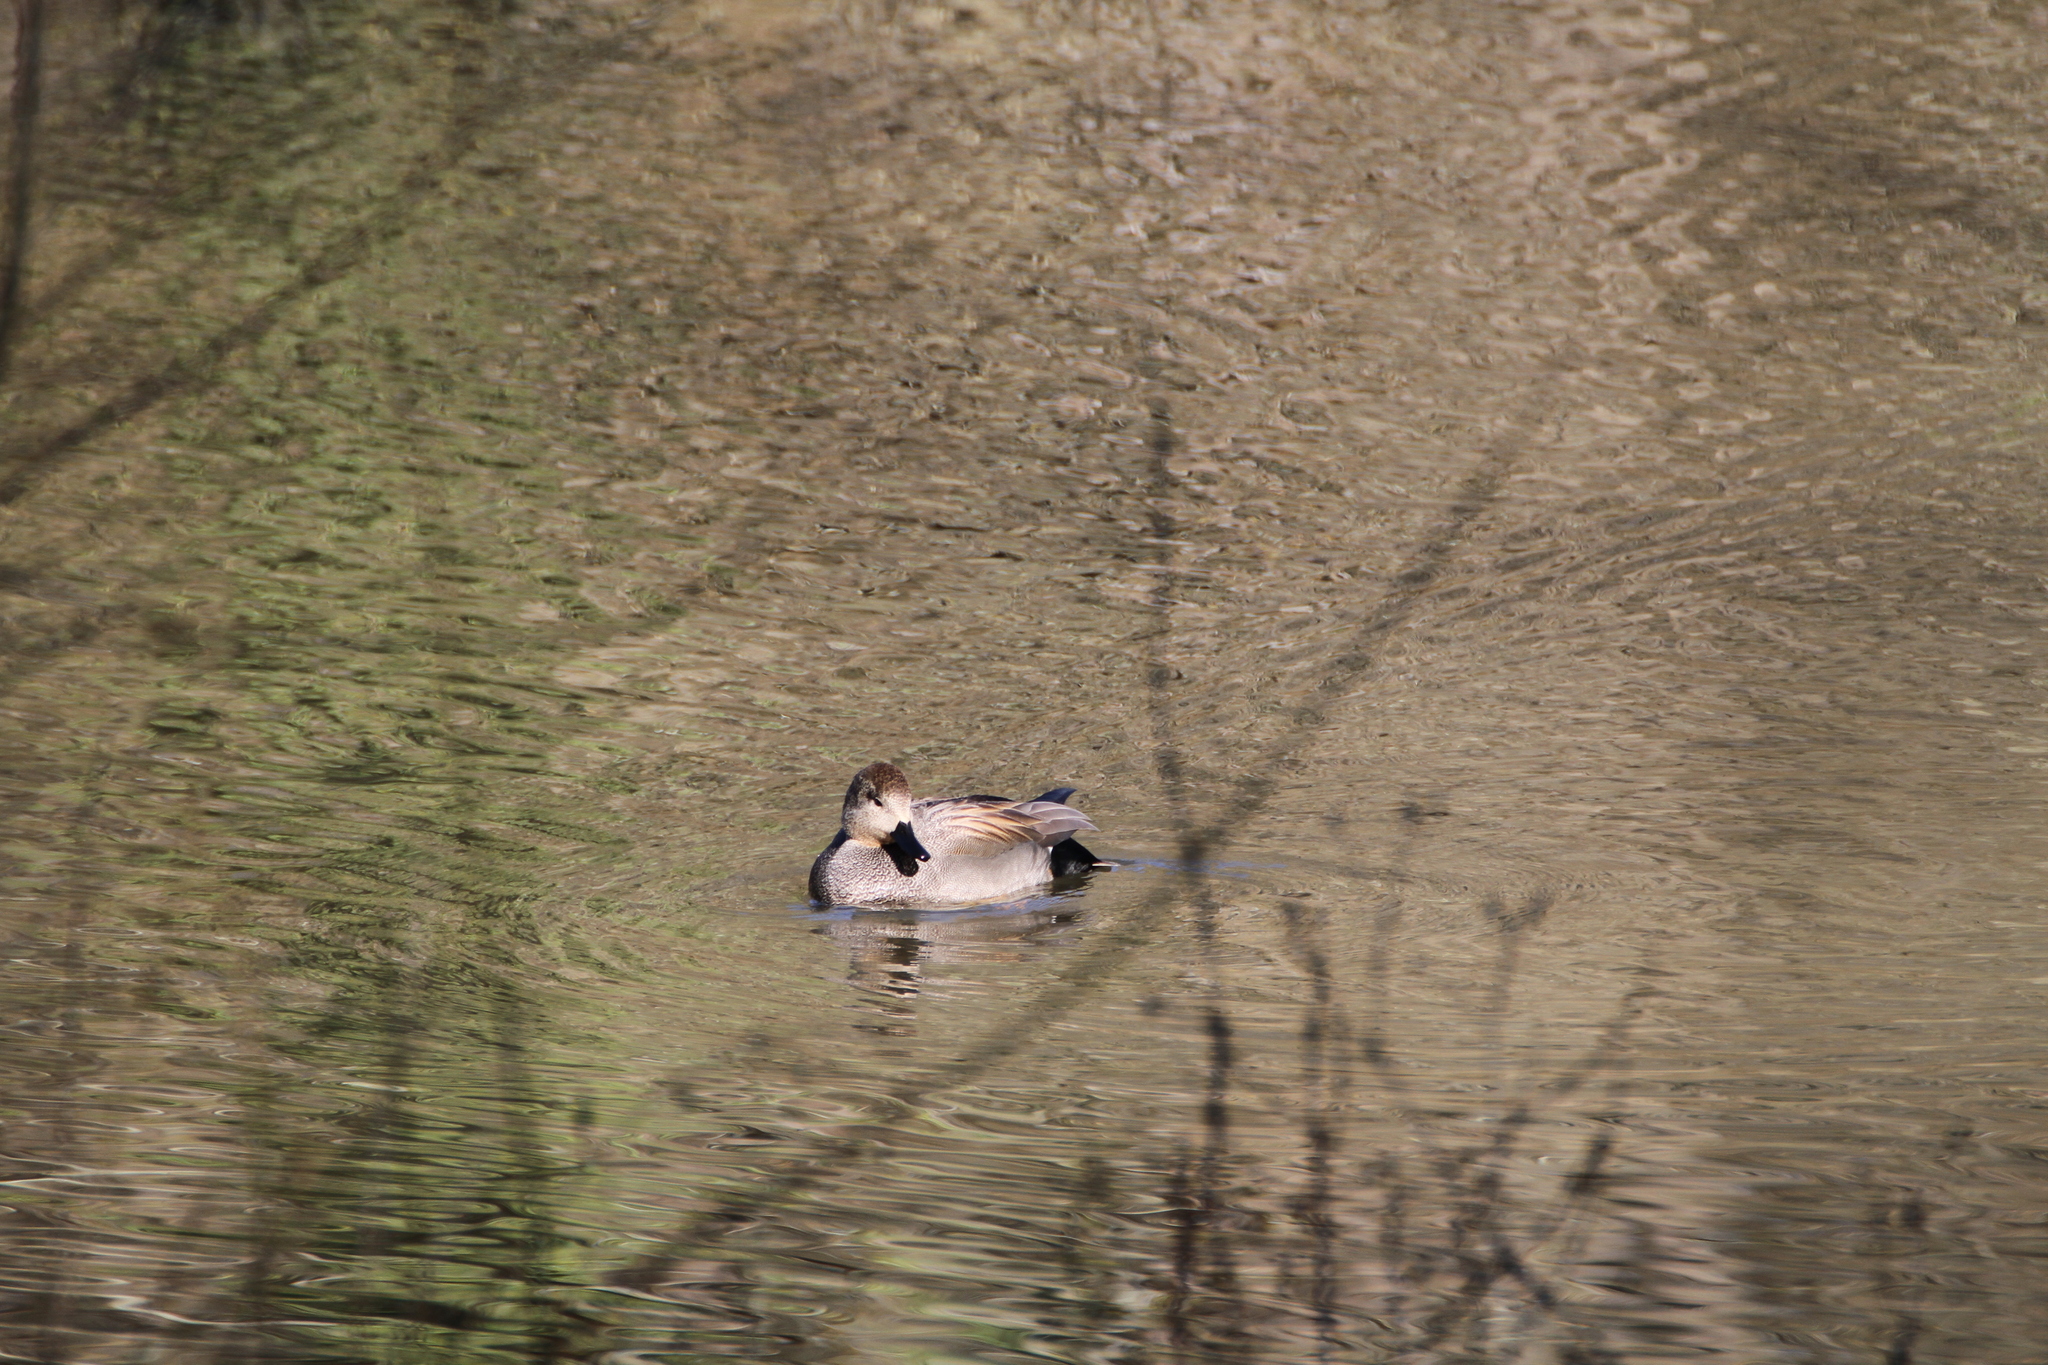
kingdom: Animalia
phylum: Chordata
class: Aves
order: Anseriformes
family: Anatidae
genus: Mareca
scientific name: Mareca strepera
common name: Gadwall
